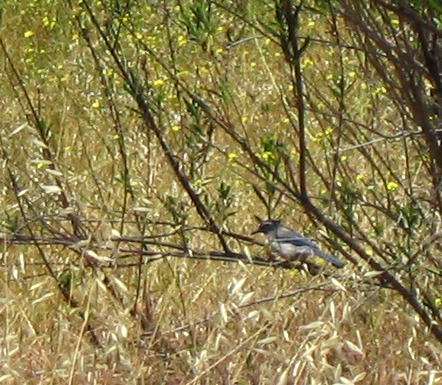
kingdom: Animalia
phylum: Chordata
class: Aves
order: Passeriformes
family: Corvidae
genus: Aphelocoma
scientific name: Aphelocoma californica
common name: California scrub-jay
